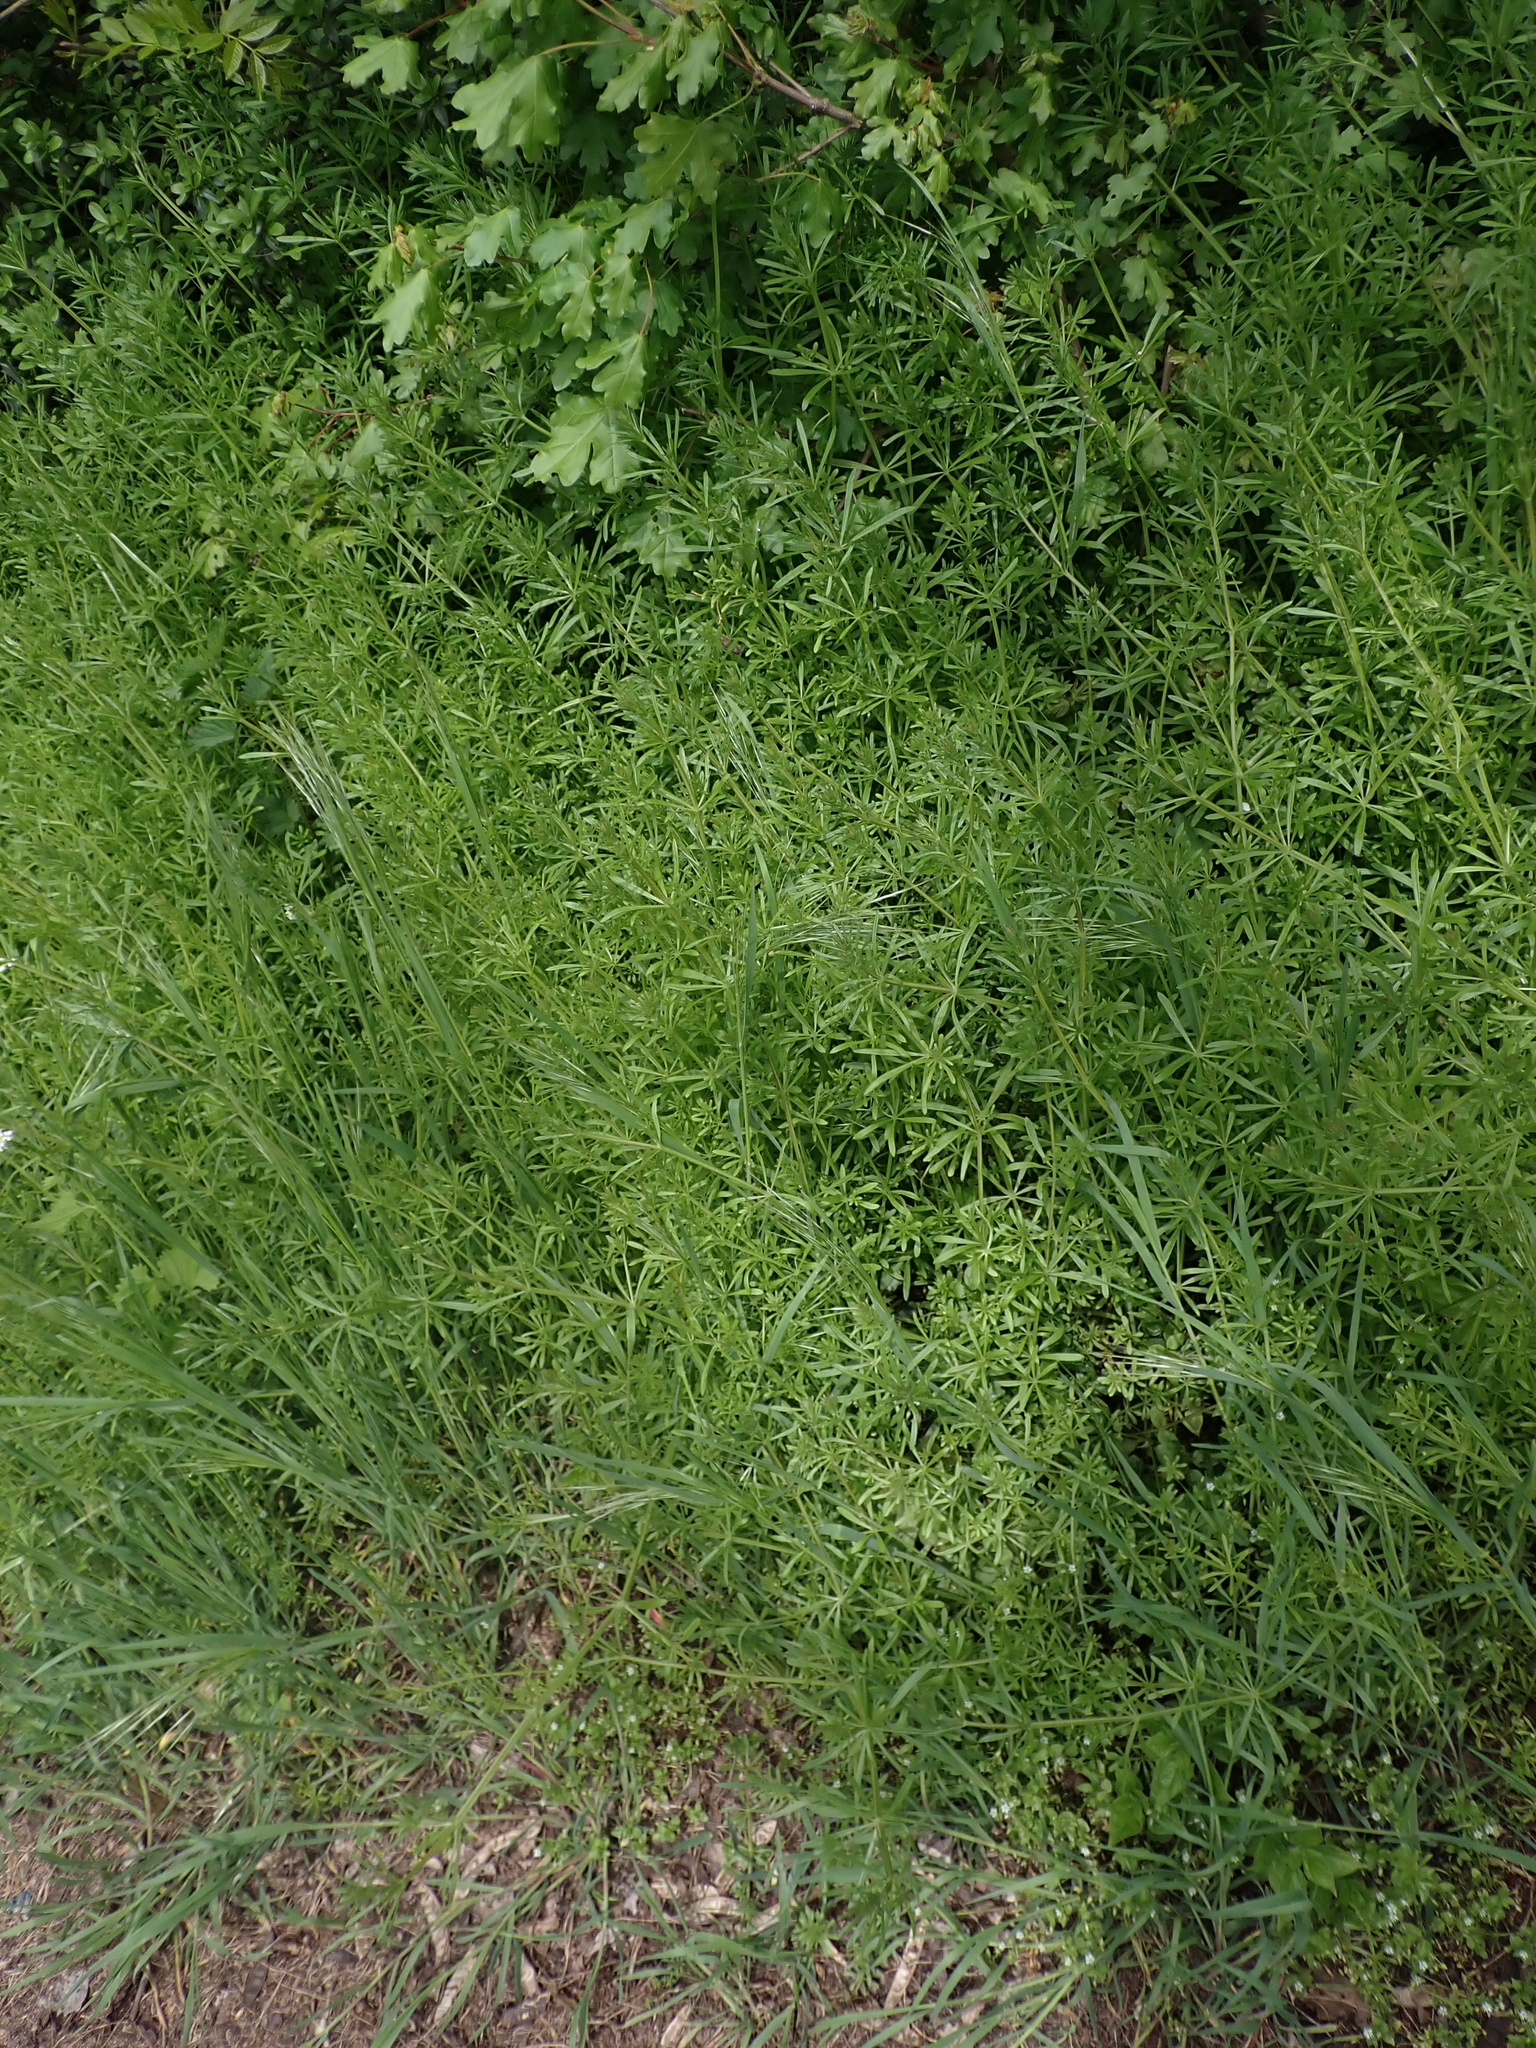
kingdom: Plantae
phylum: Tracheophyta
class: Magnoliopsida
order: Gentianales
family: Rubiaceae
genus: Galium
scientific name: Galium aparine
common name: Cleavers
